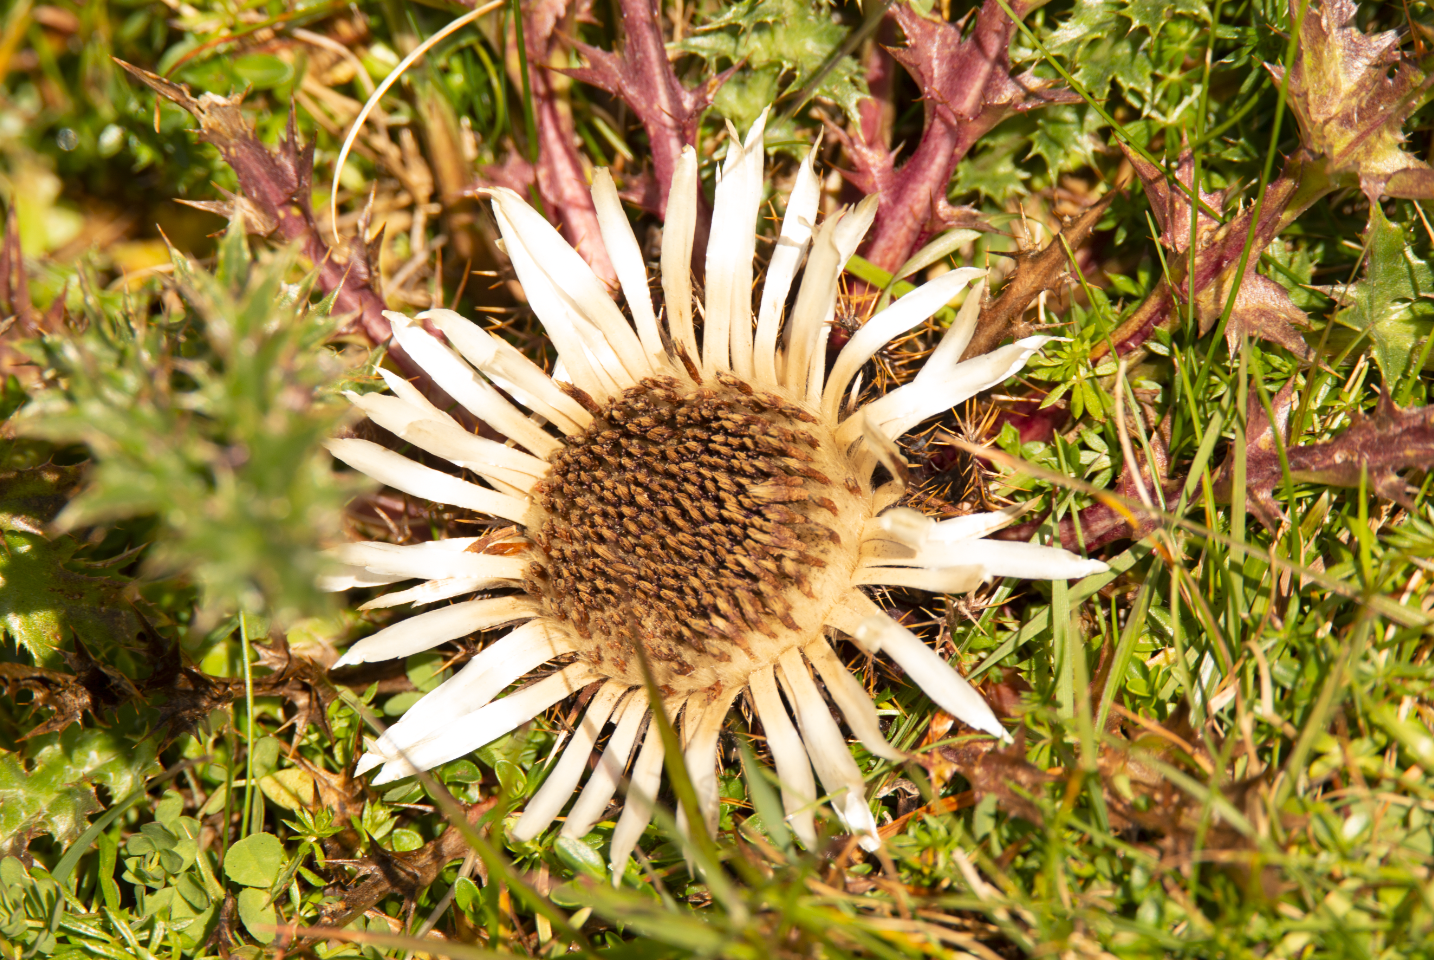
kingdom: Plantae
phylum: Tracheophyta
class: Magnoliopsida
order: Asterales
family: Asteraceae
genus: Carlina
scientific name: Carlina acaulis
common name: Stemless carline thistle
